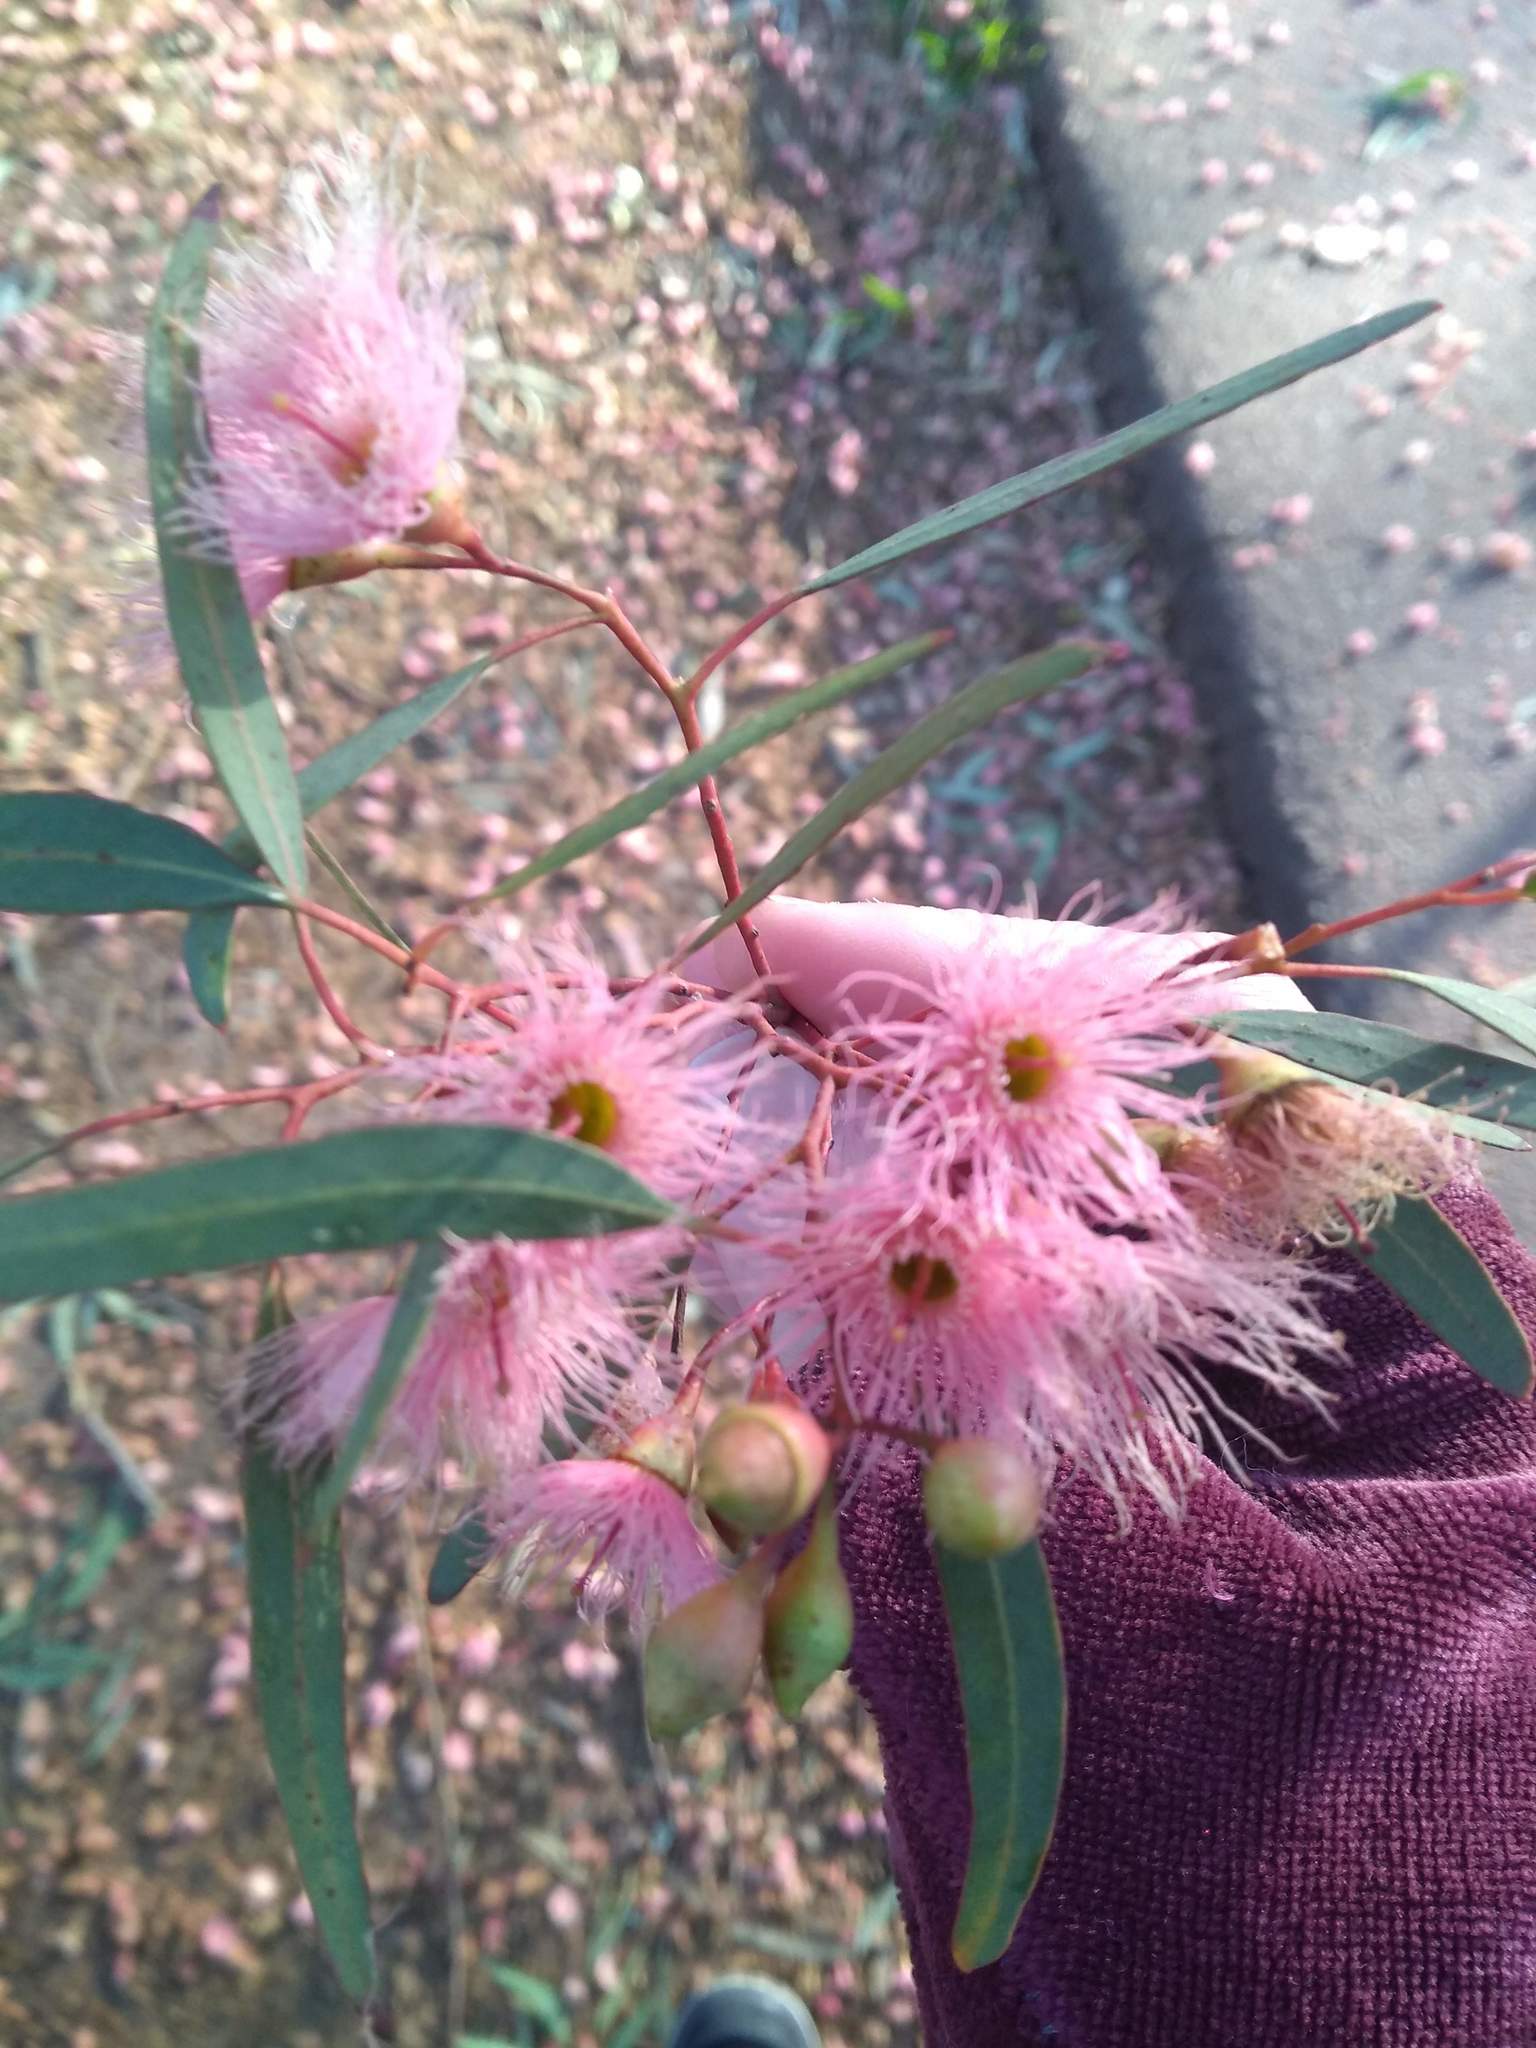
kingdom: Plantae
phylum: Tracheophyta
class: Magnoliopsida
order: Myrtales
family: Myrtaceae
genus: Eucalyptus
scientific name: Eucalyptus sideroxylon
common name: Red ironbark
